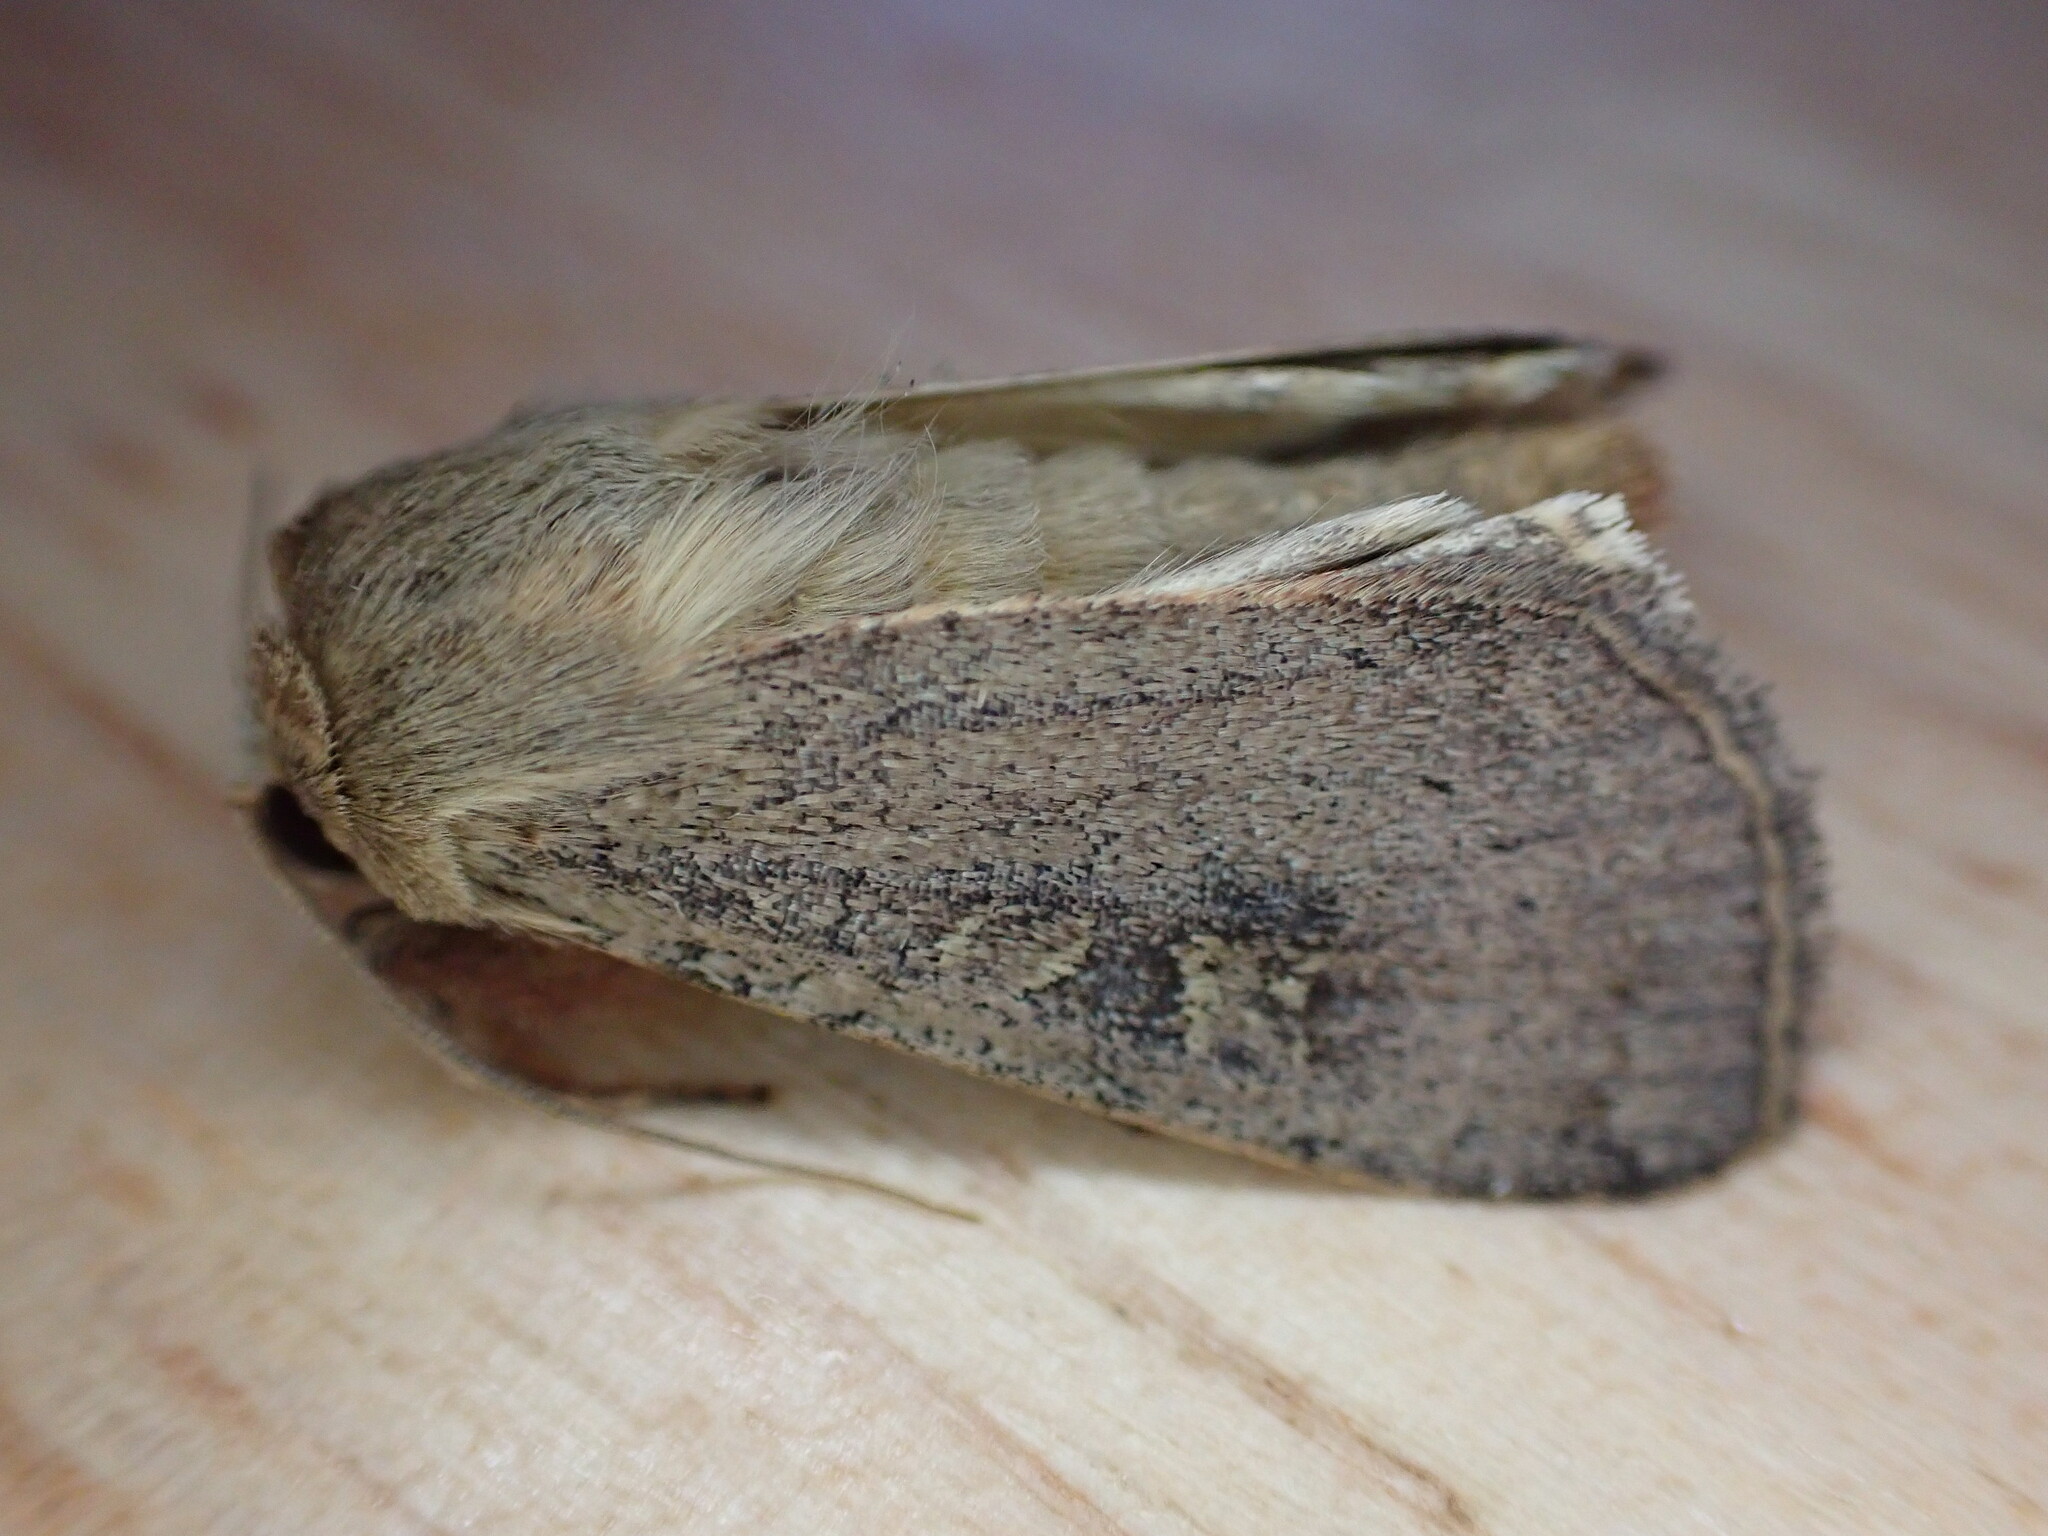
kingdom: Animalia
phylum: Arthropoda
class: Insecta
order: Lepidoptera
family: Noctuidae
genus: Xestia
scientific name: Xestia xanthographa
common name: Square-spot rustic
